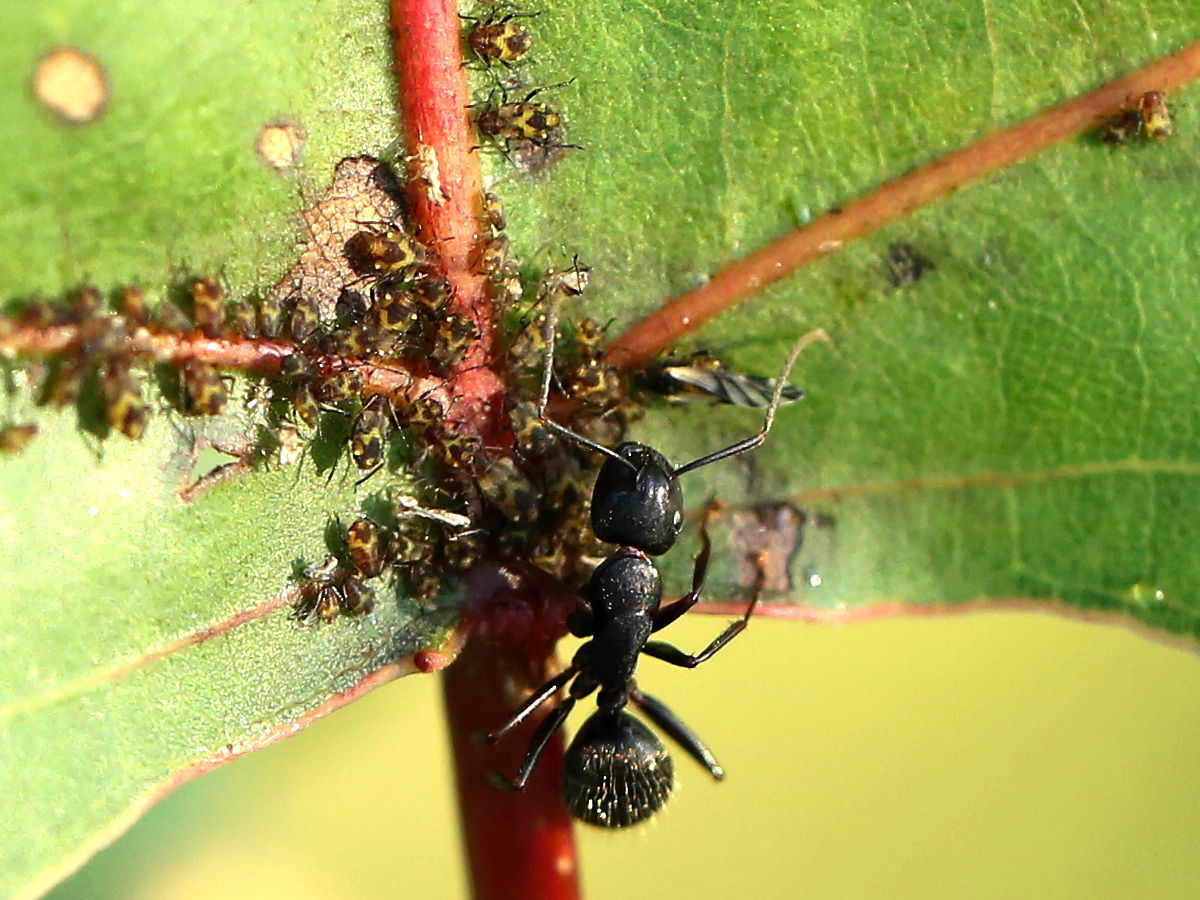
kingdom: Animalia
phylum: Arthropoda
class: Insecta
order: Hymenoptera
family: Formicidae
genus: Camponotus
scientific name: Camponotus pennsylvanicus
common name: Black carpenter ant
